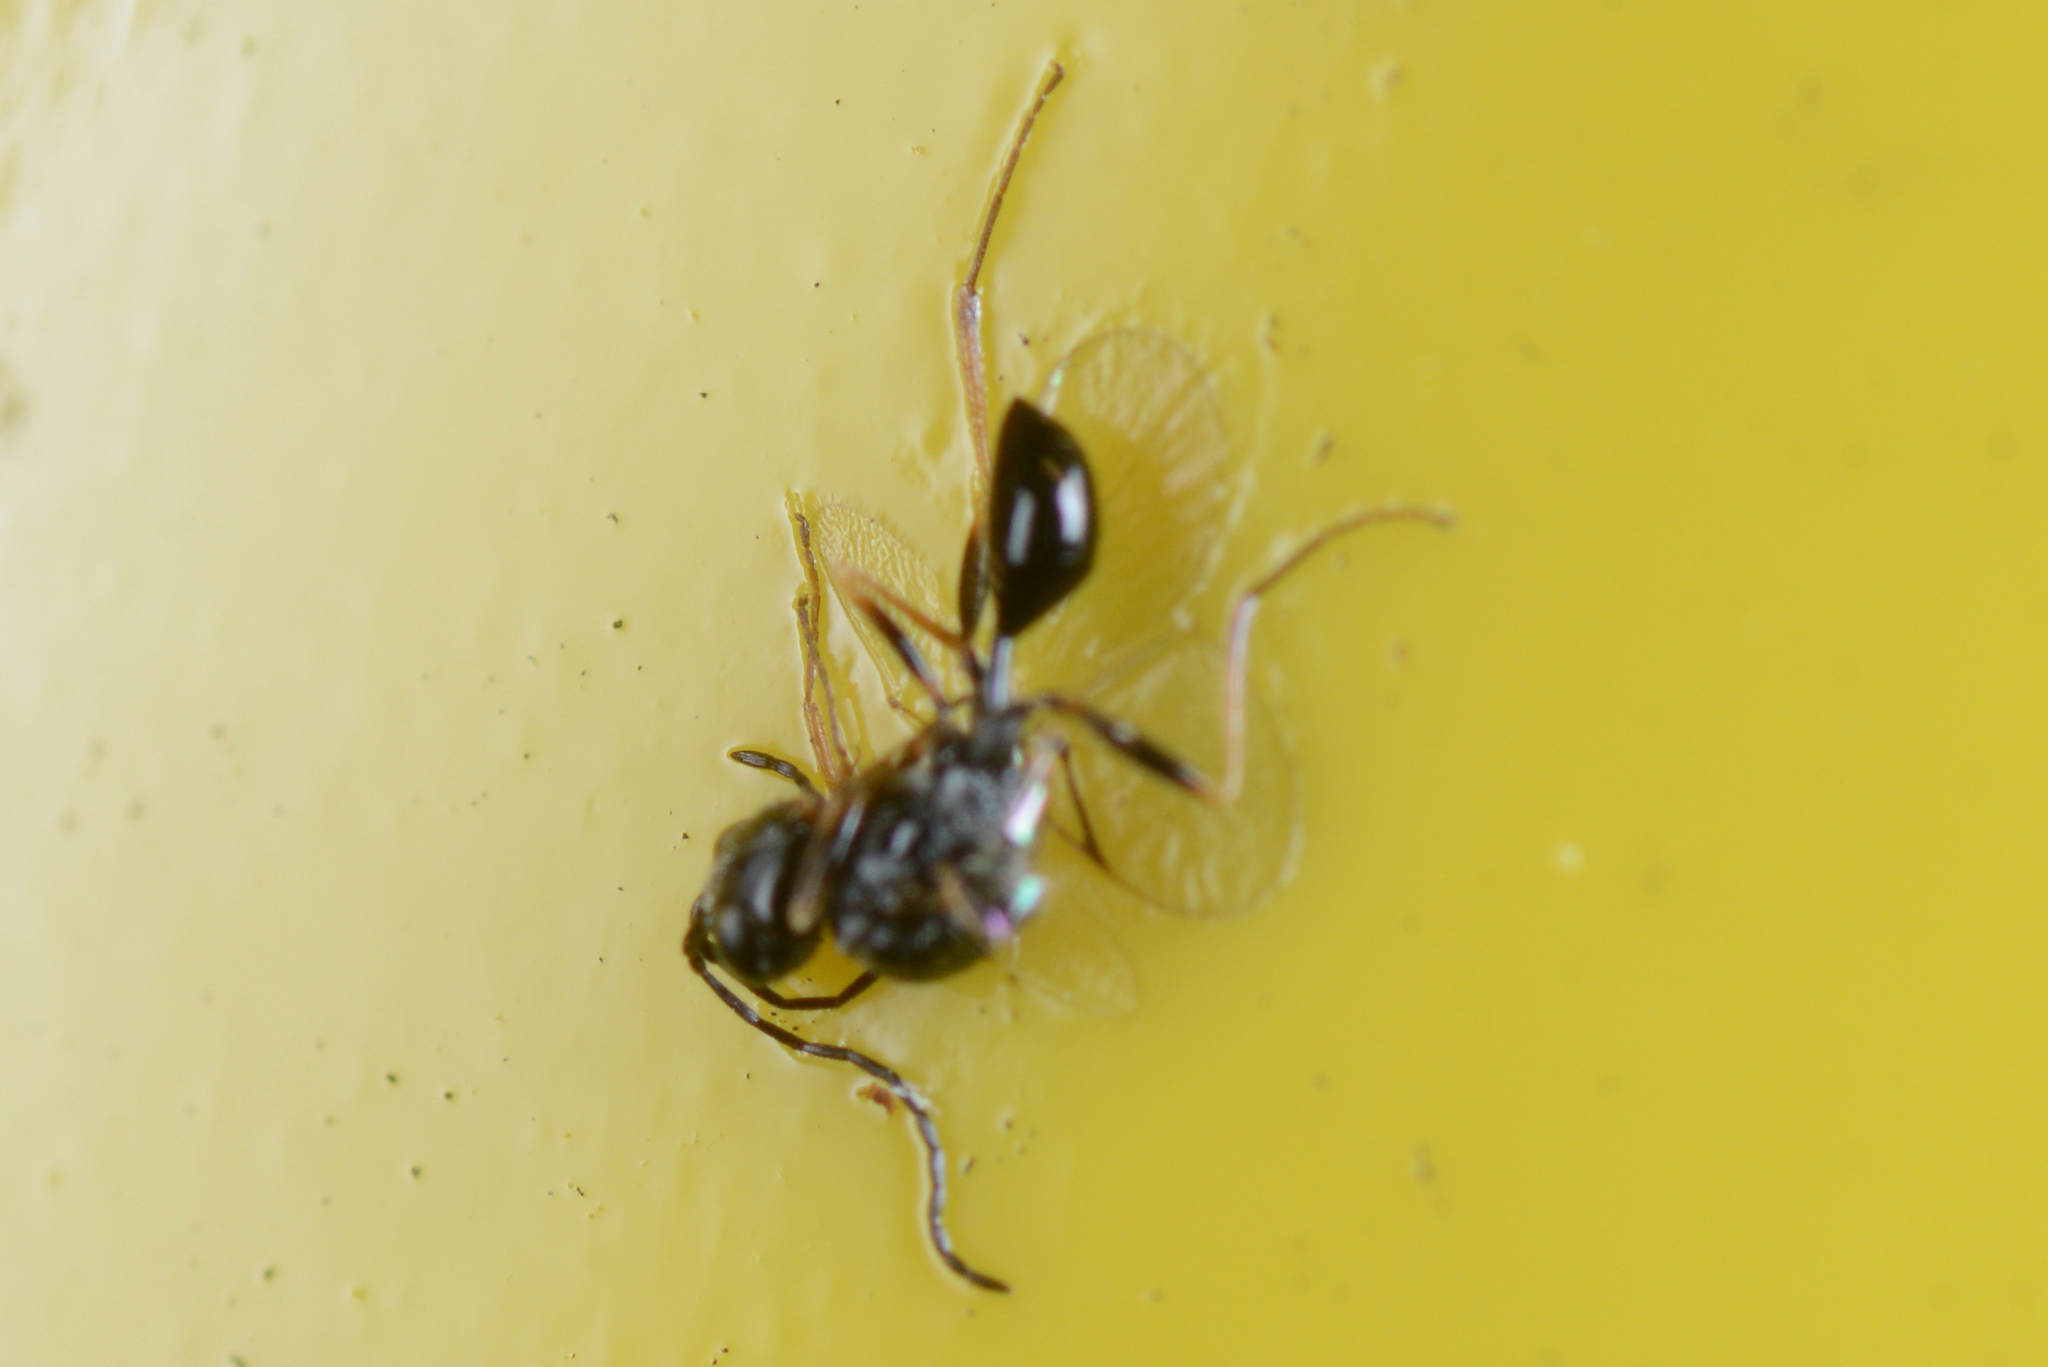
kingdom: Animalia
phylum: Arthropoda
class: Insecta
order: Hymenoptera
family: Figitidae
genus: Anacharis
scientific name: Anacharis zealandica
